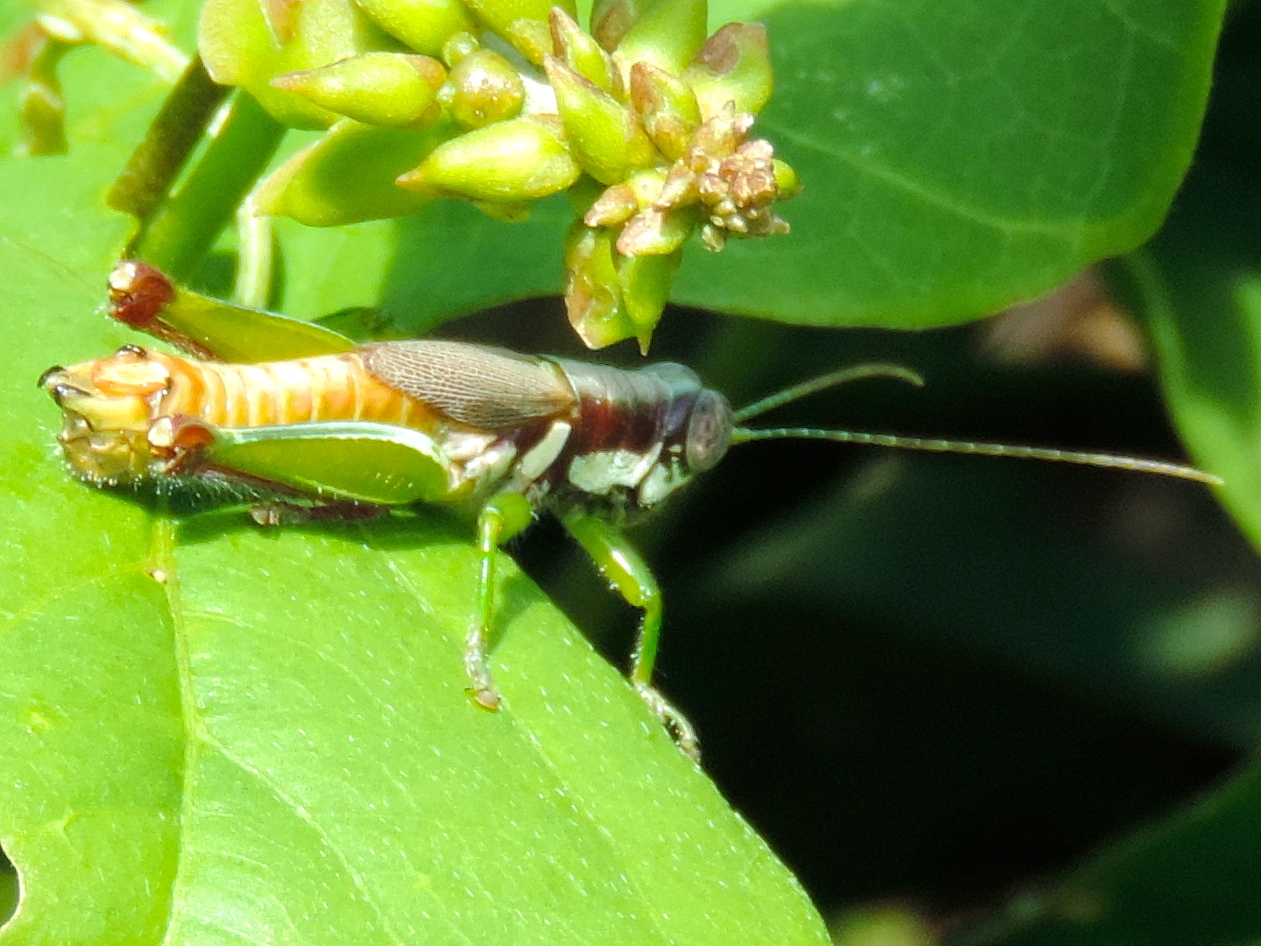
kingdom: Animalia
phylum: Arthropoda
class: Insecta
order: Orthoptera
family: Acrididae
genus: Proctolabus
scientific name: Proctolabus cerciatus
